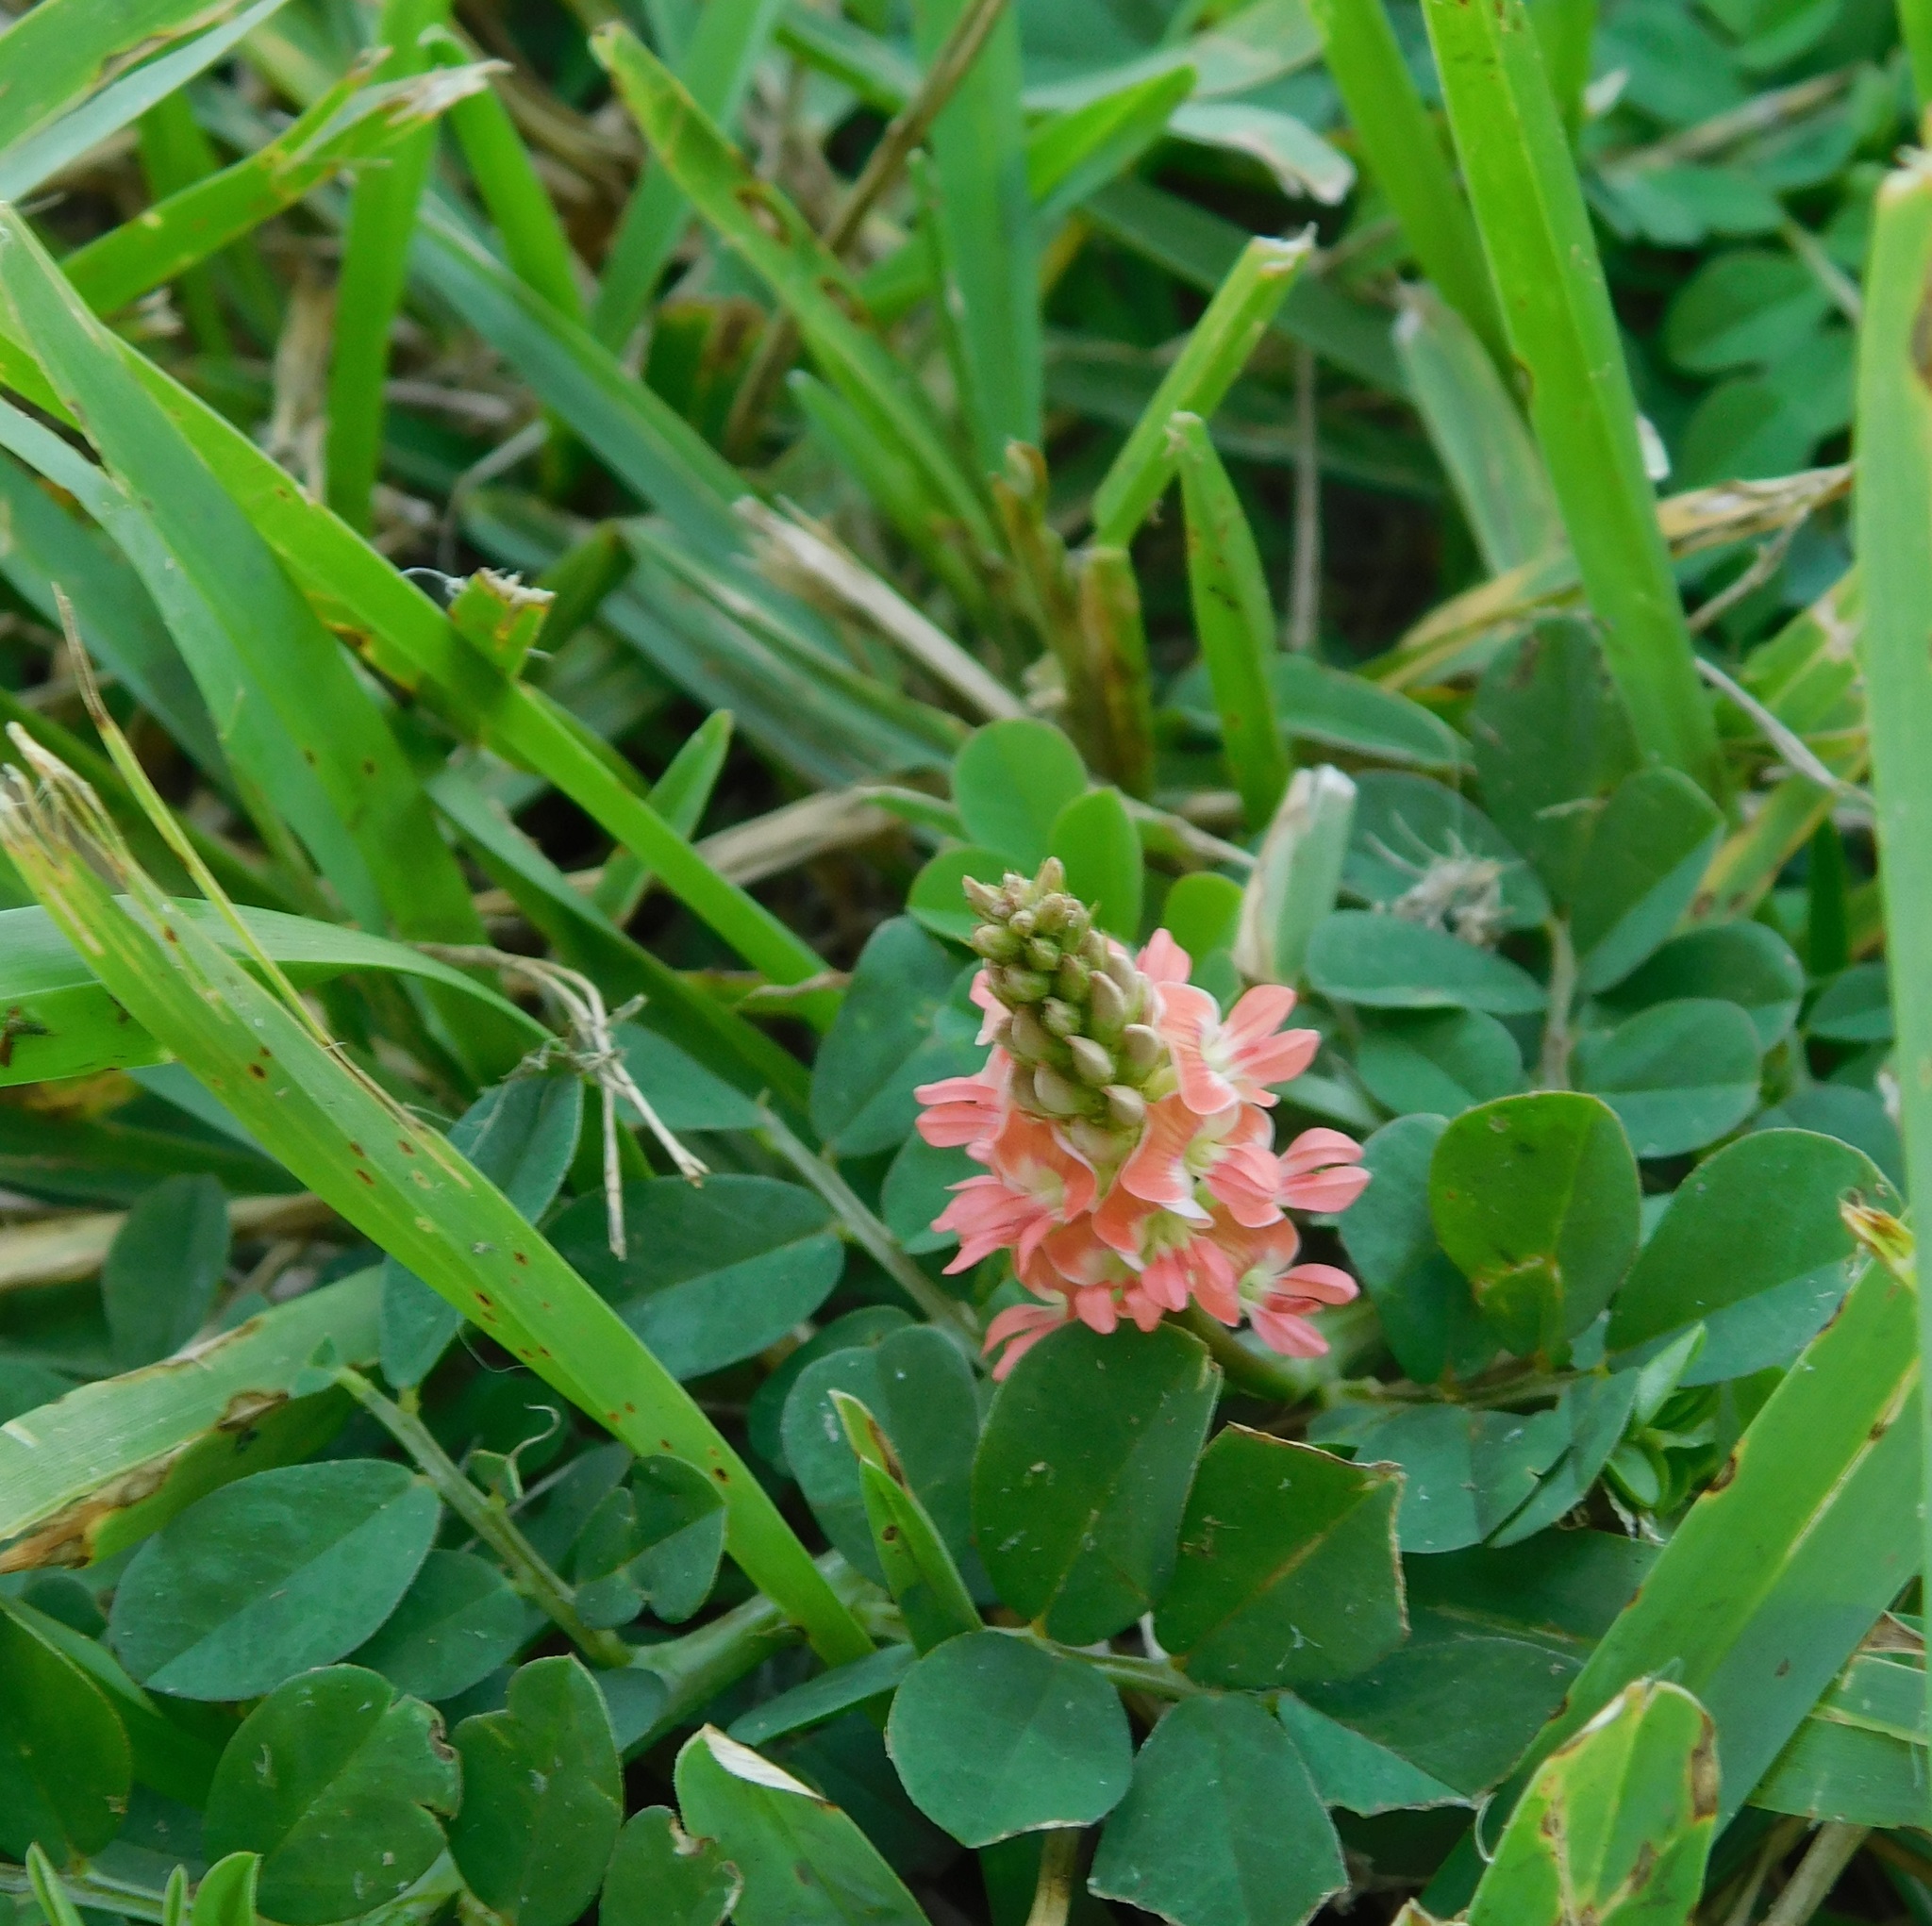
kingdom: Plantae
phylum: Tracheophyta
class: Magnoliopsida
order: Fabales
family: Fabaceae
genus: Indigofera
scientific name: Indigofera spicata
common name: Creeping indigo
